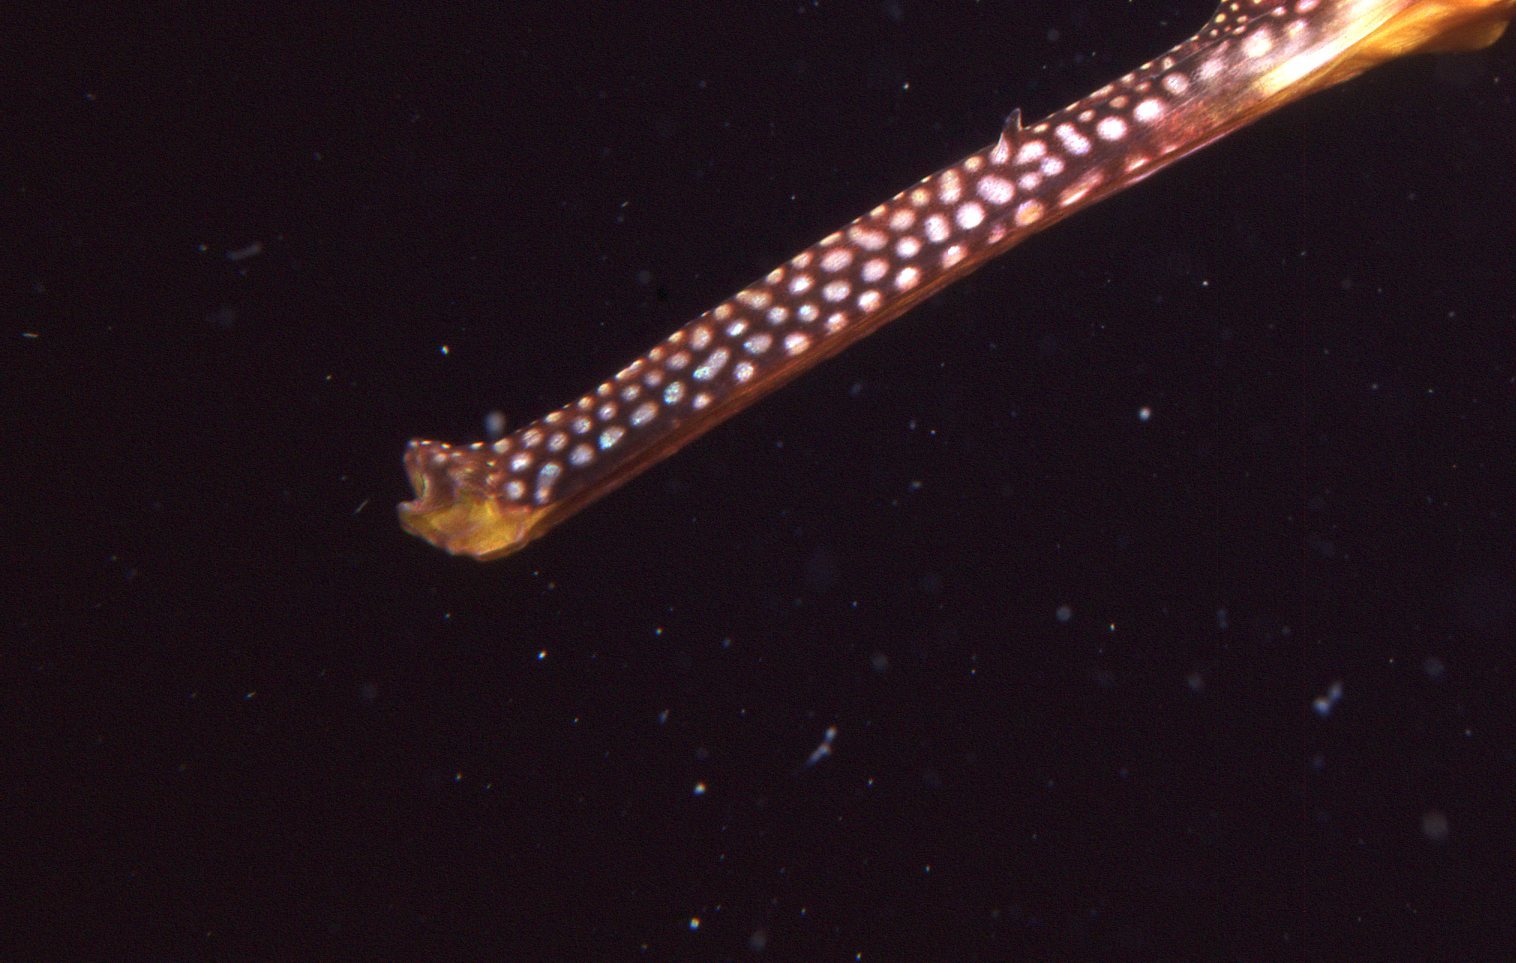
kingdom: Animalia
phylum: Chordata
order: Syngnathiformes
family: Syngnathidae
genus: Phyllopteryx
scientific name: Phyllopteryx taeniolatus
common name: Common seadragon
